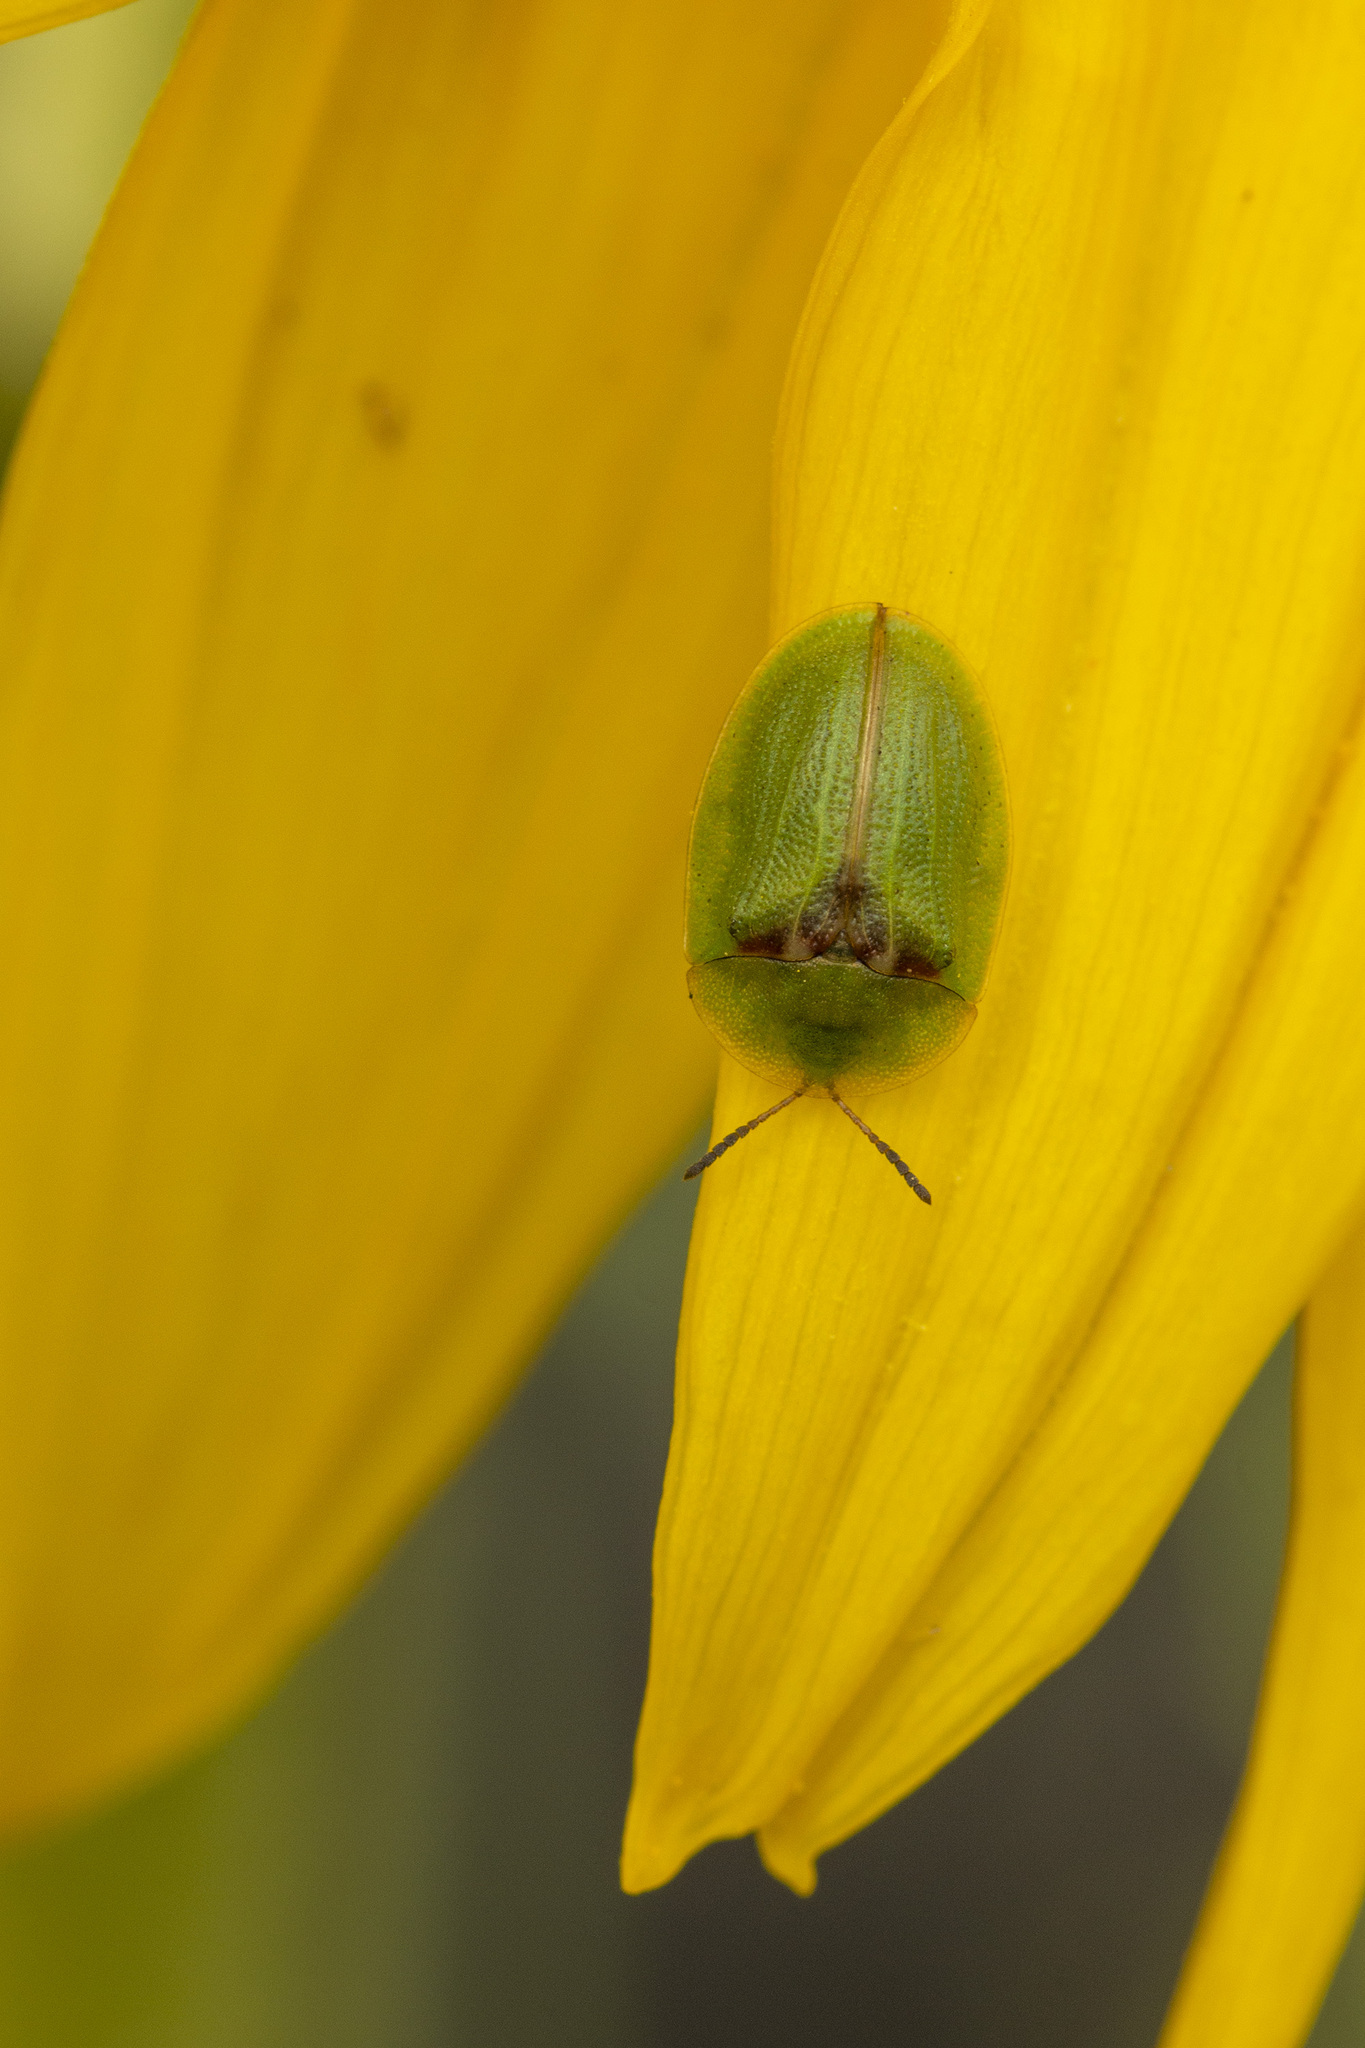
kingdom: Animalia
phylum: Arthropoda
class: Insecta
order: Coleoptera
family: Chrysomelidae
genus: Cassida
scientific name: Cassida rubiginosa
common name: Thistle tortoise beetle
